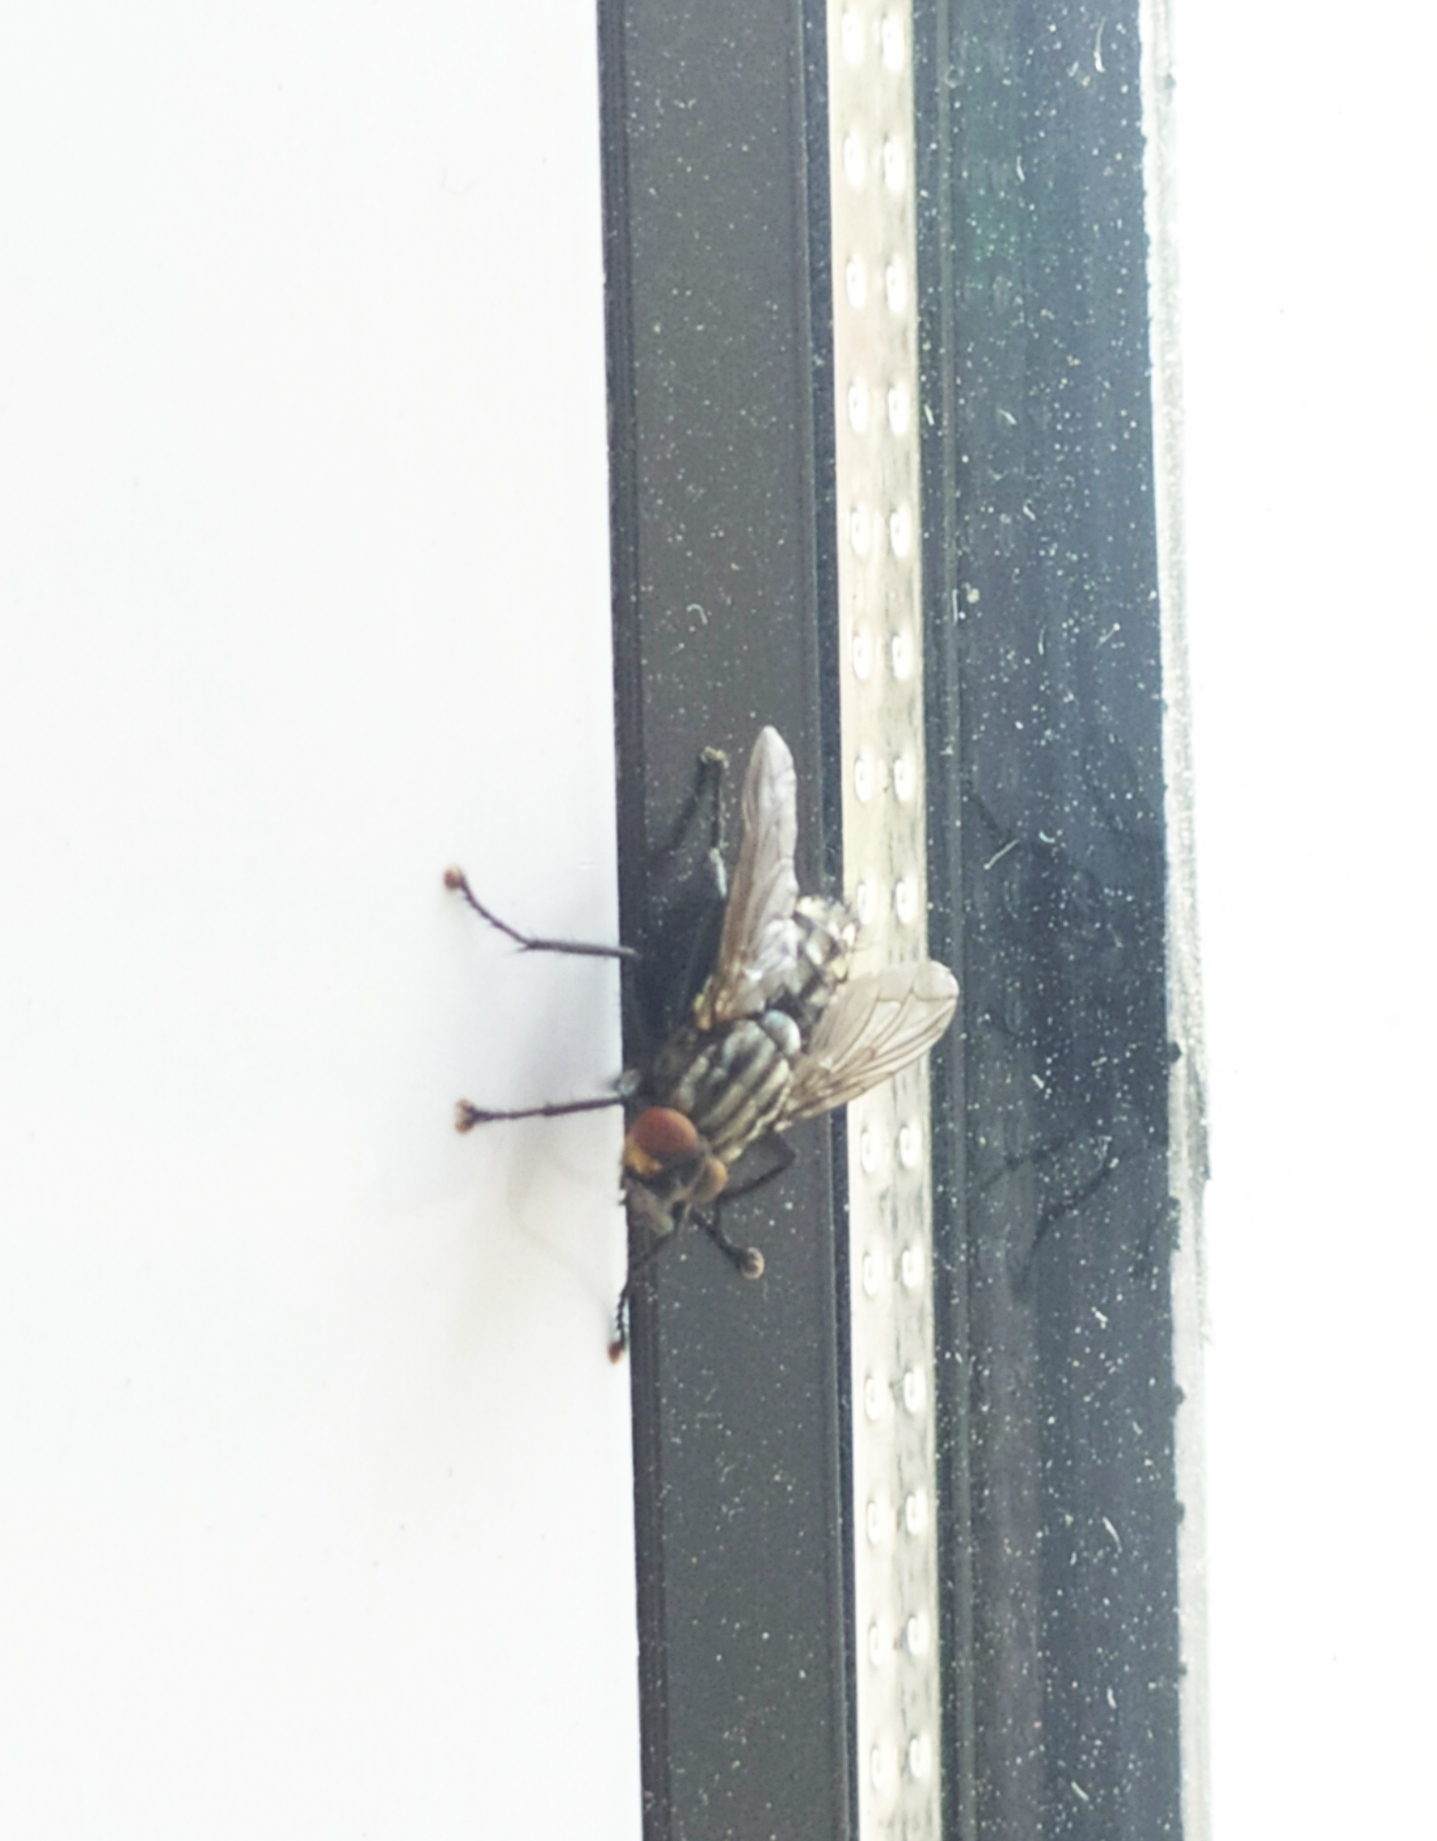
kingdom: Animalia
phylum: Arthropoda
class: Insecta
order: Diptera
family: Sarcophagidae
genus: Sarcophaga
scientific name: Sarcophaga variegata
